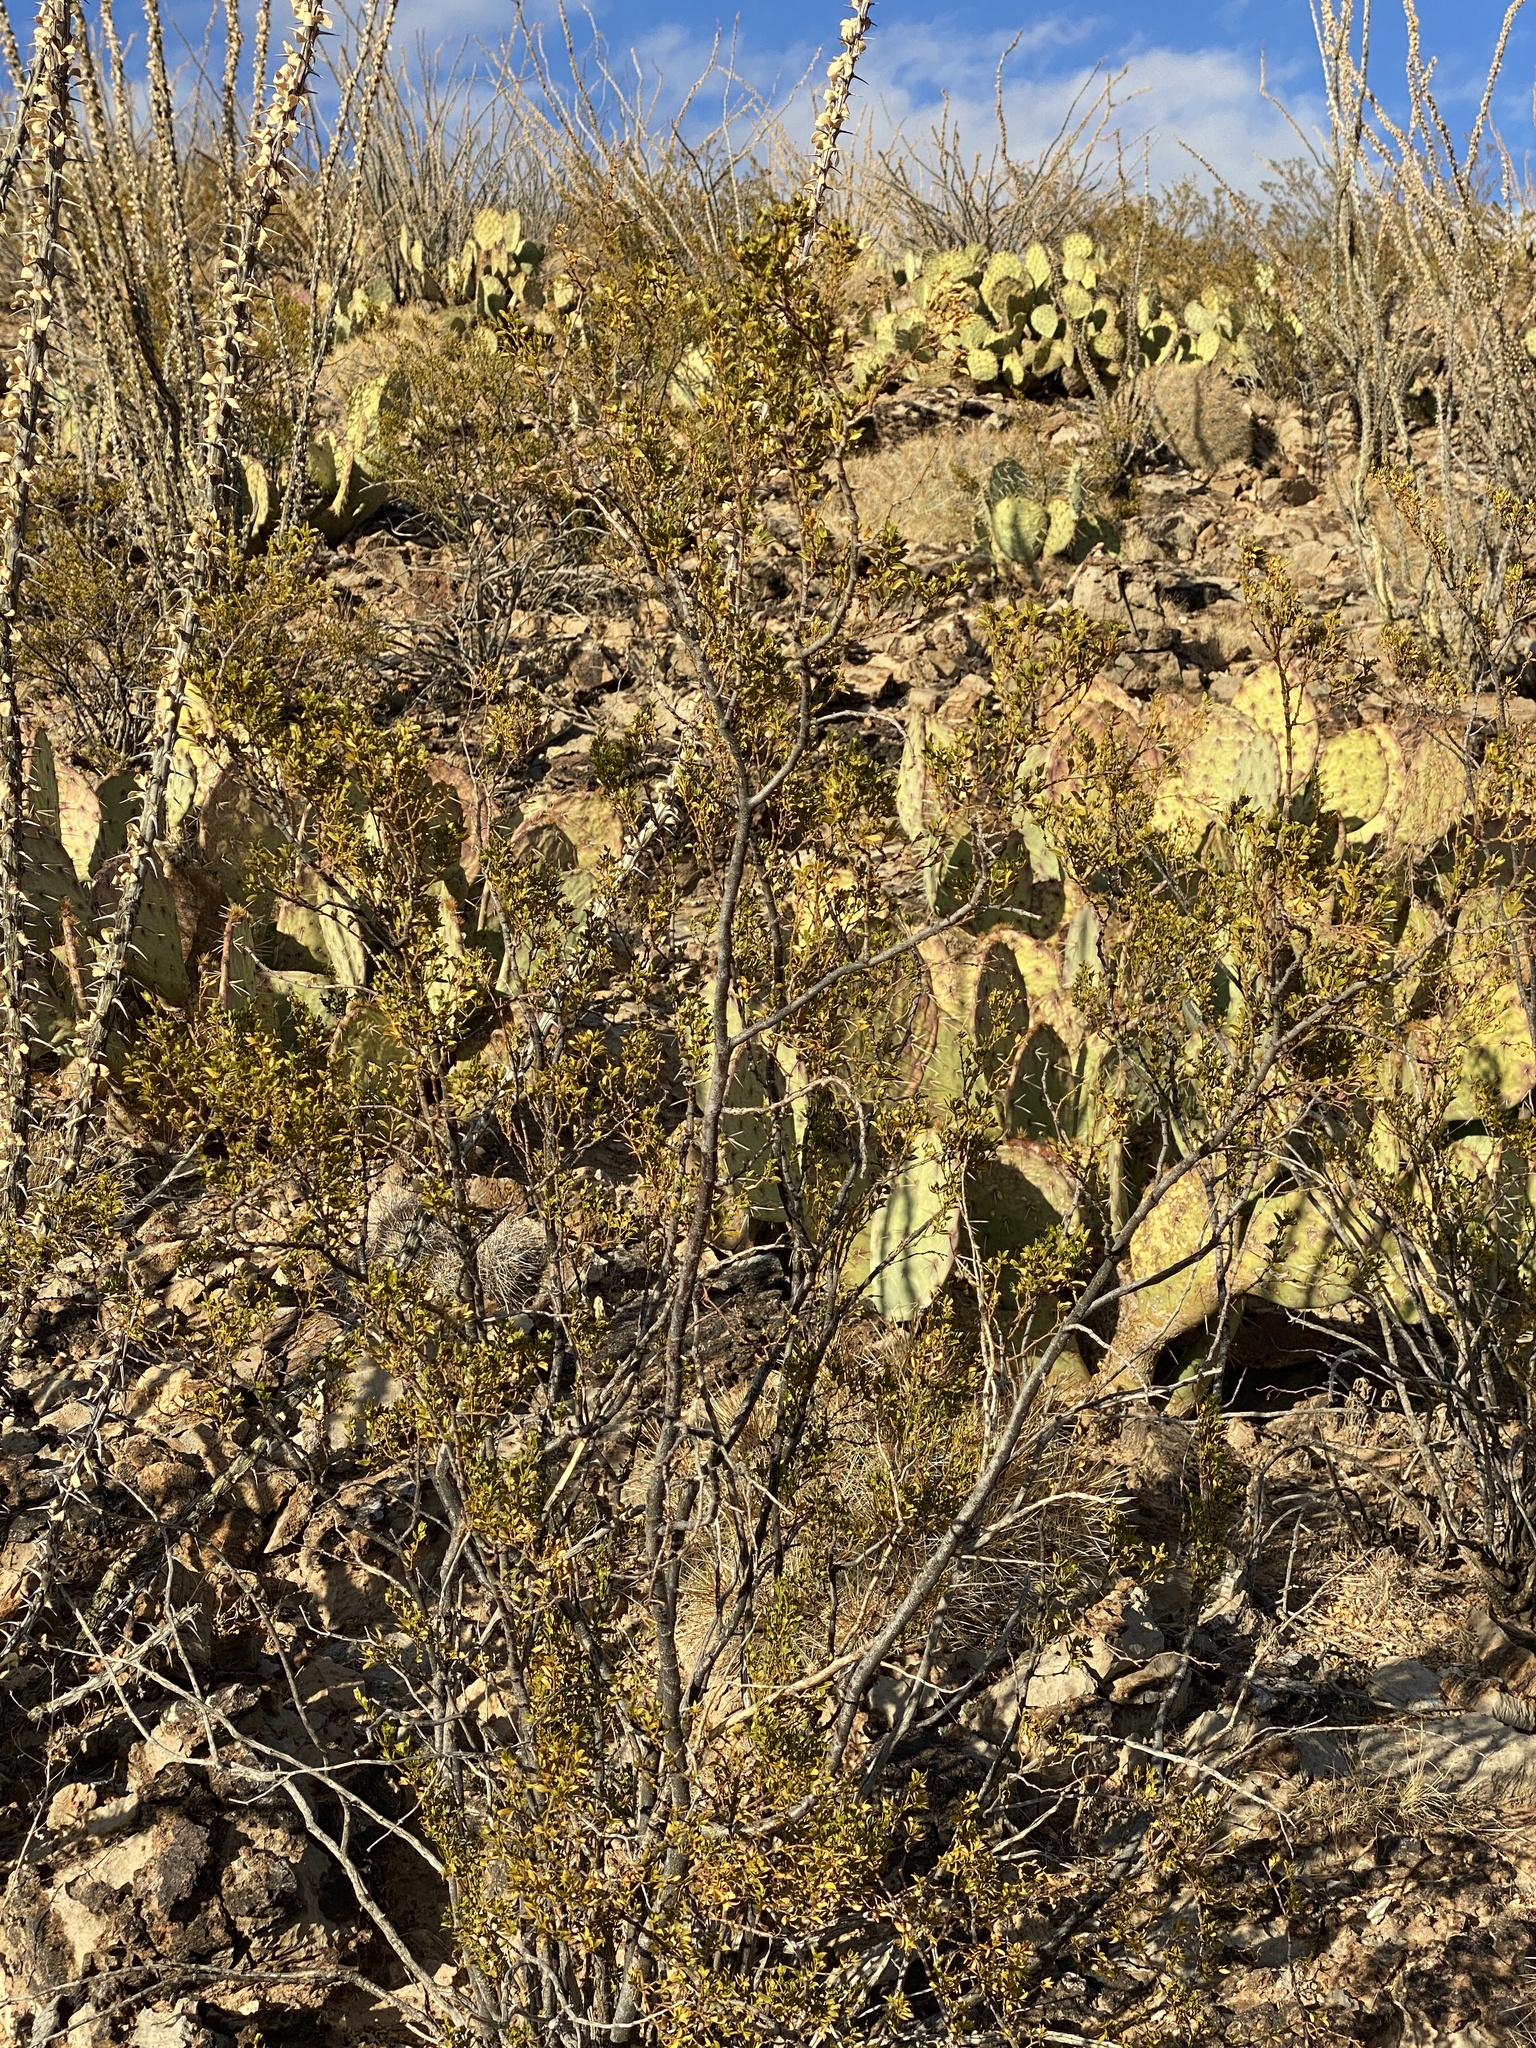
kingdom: Plantae
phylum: Tracheophyta
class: Magnoliopsida
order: Zygophyllales
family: Zygophyllaceae
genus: Larrea
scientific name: Larrea tridentata
